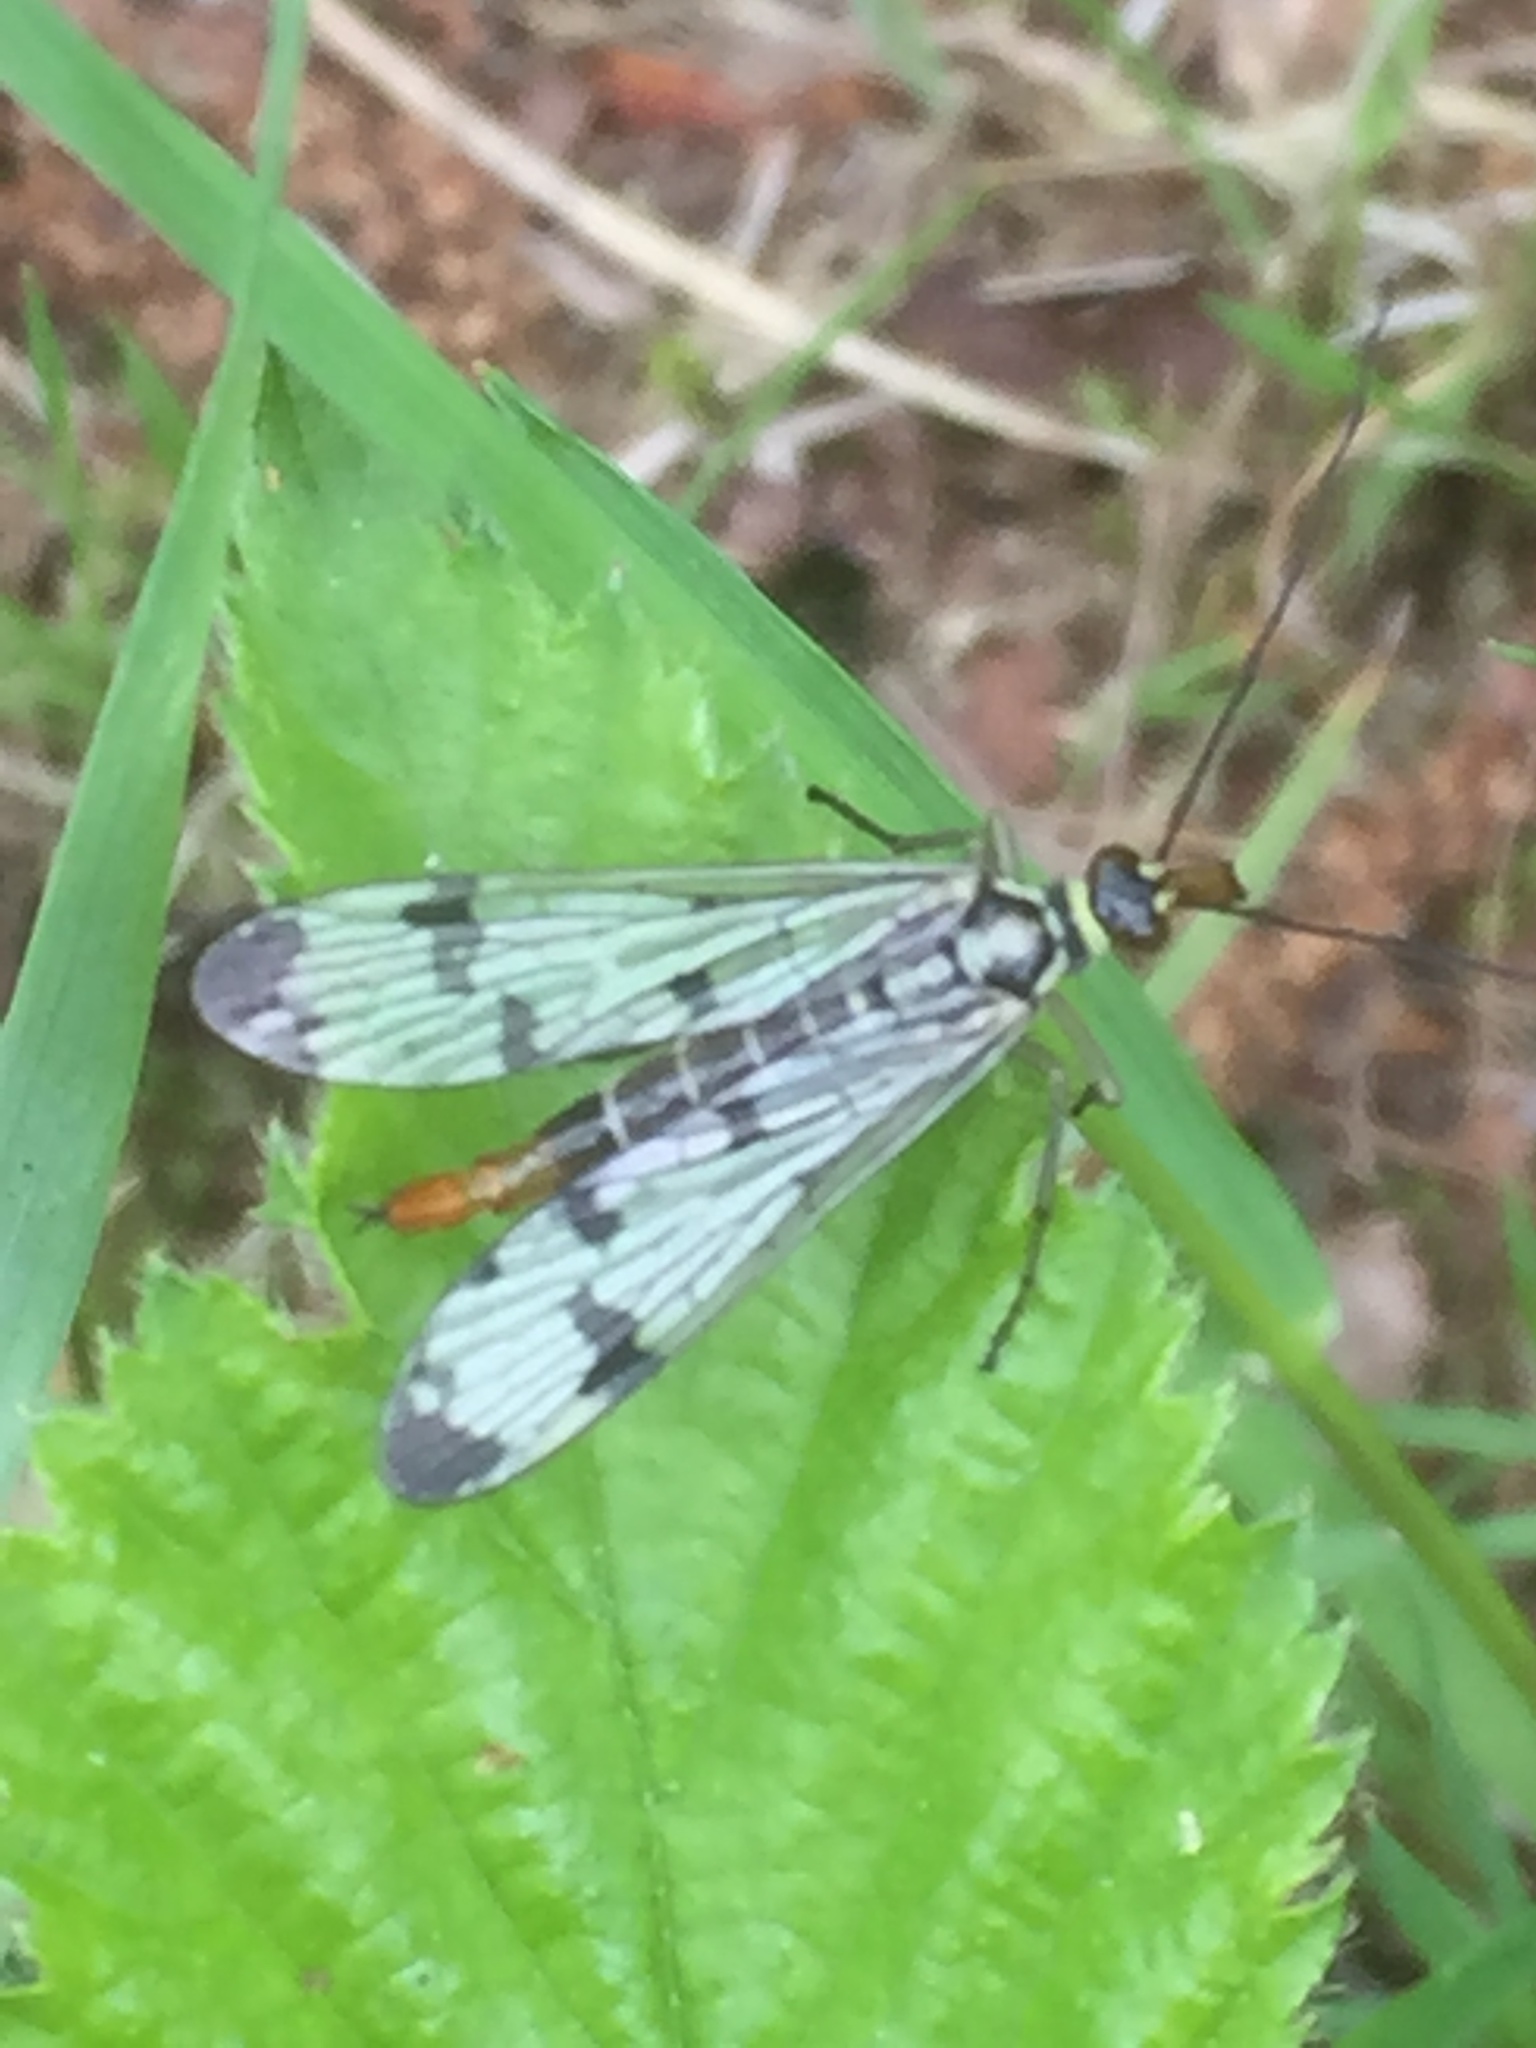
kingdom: Animalia
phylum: Arthropoda
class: Insecta
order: Mecoptera
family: Panorpidae
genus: Panorpa
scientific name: Panorpa communis
